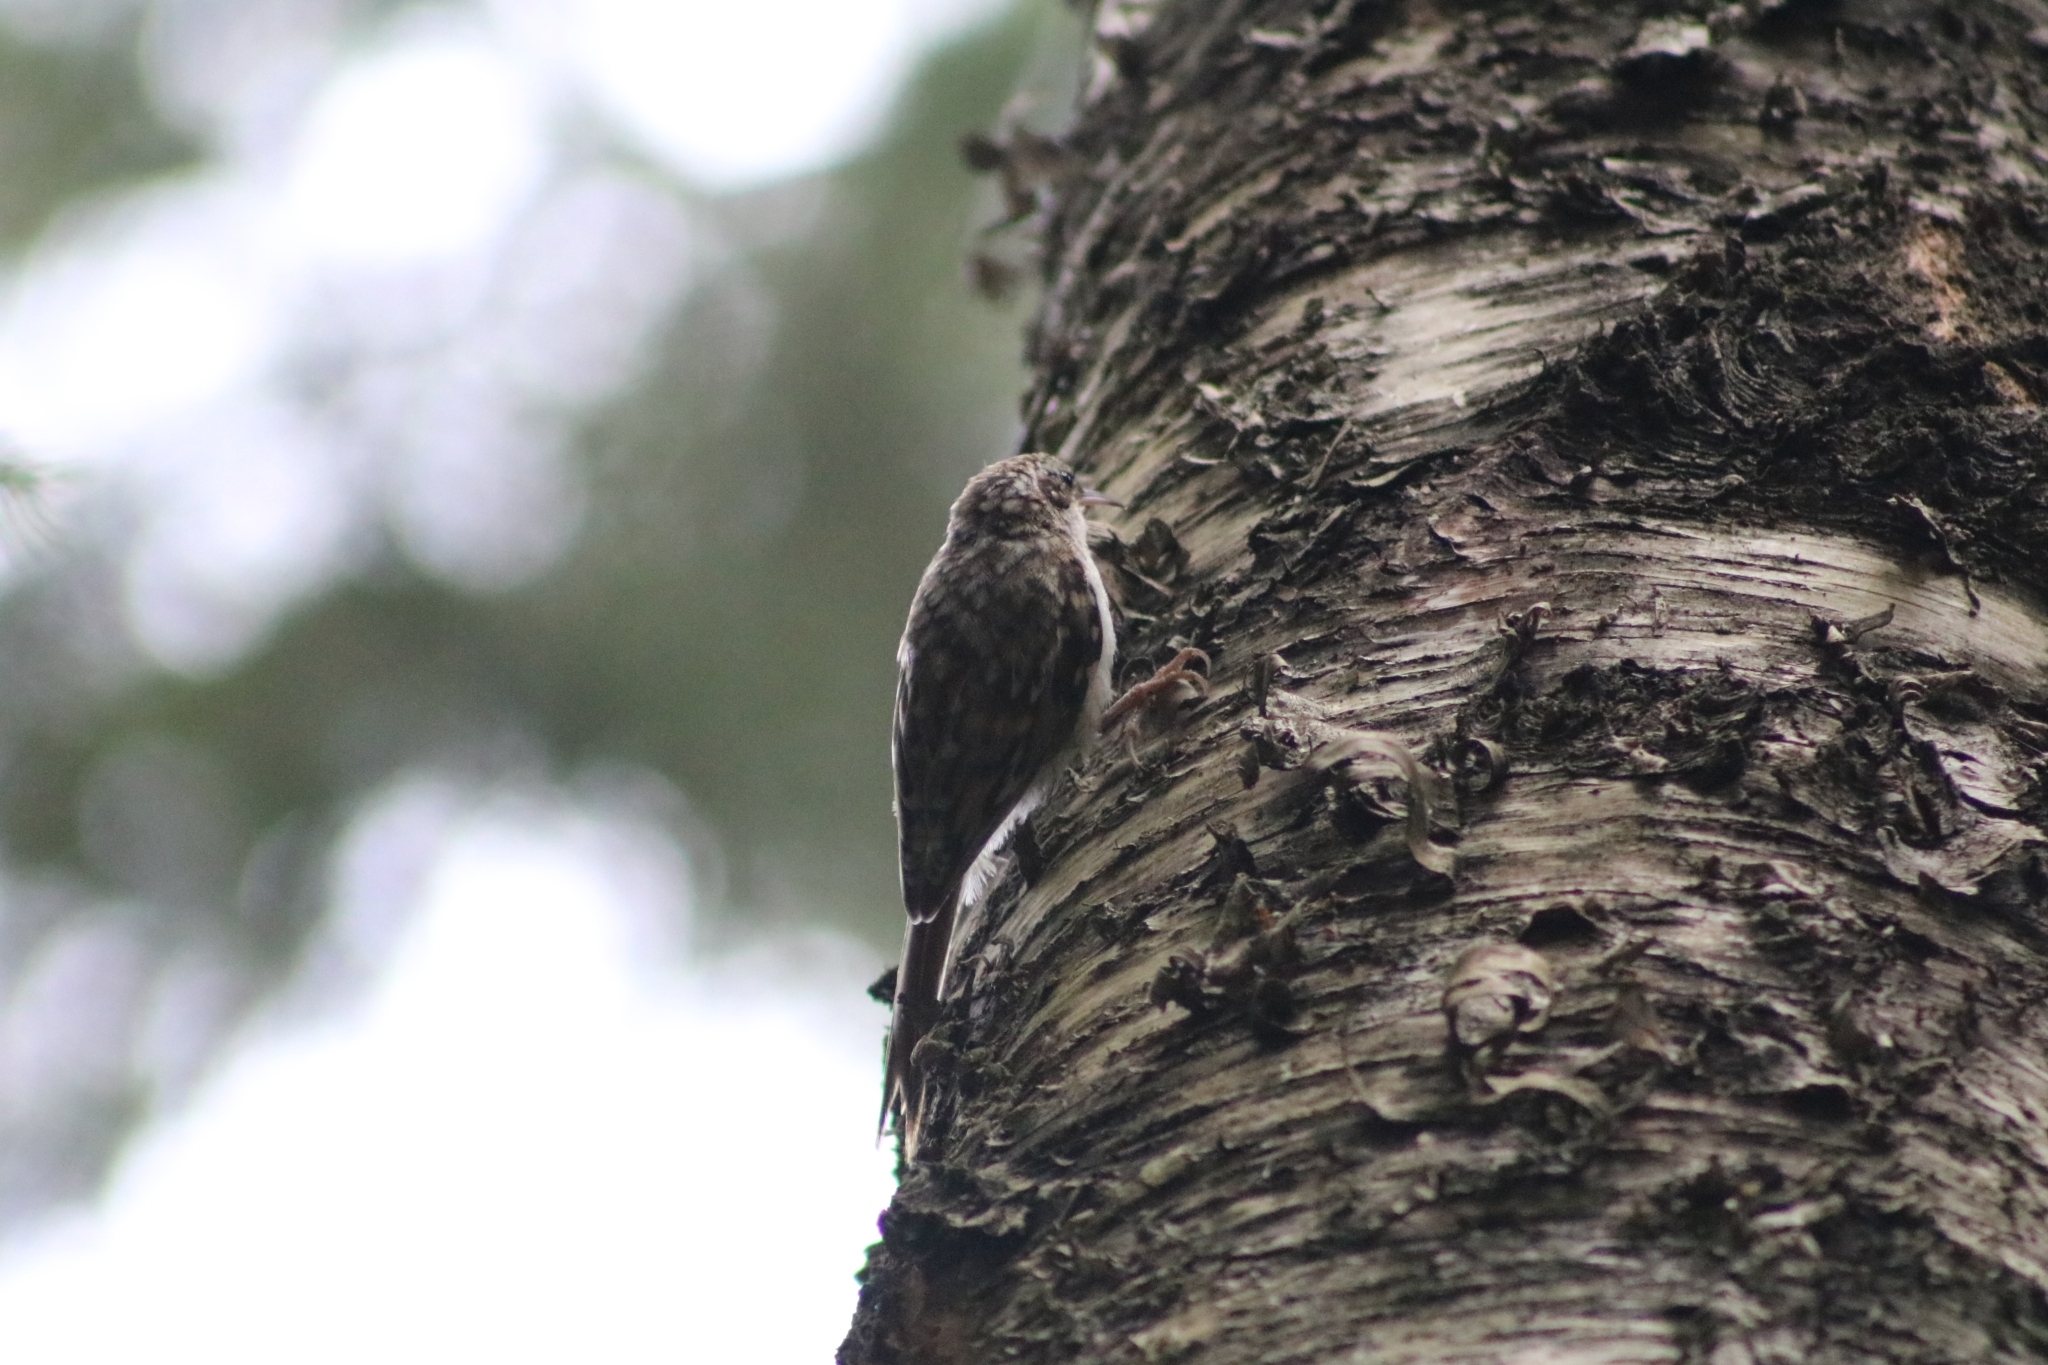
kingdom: Animalia
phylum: Chordata
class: Aves
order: Passeriformes
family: Certhiidae
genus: Certhia
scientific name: Certhia familiaris
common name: Eurasian treecreeper
